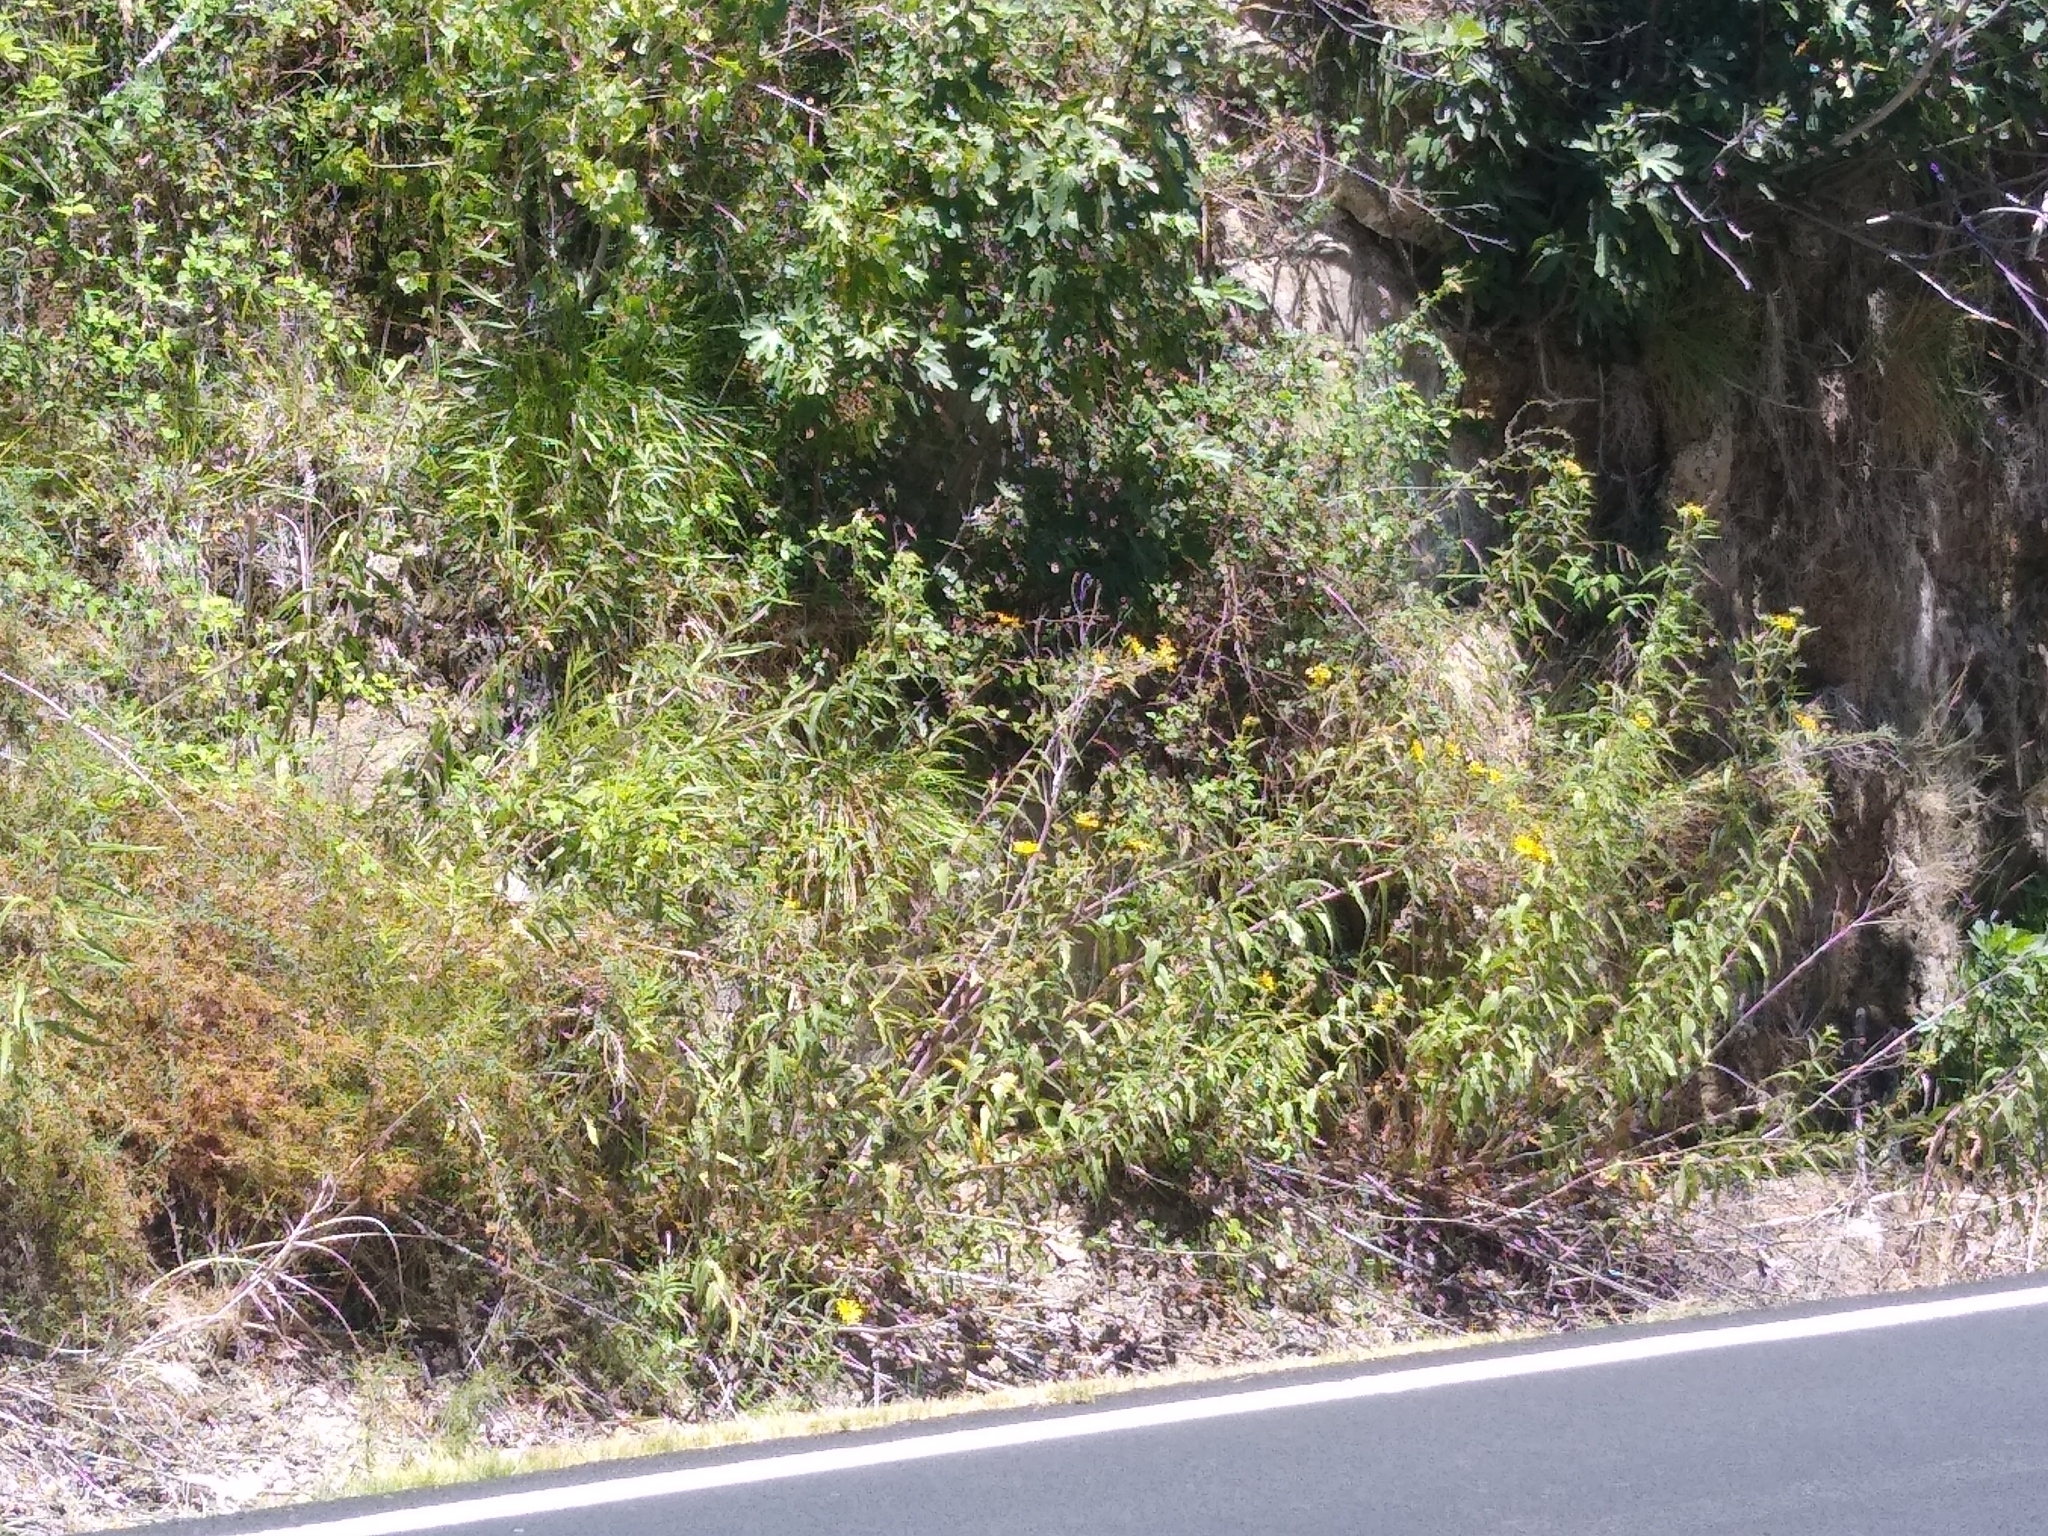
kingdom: Plantae
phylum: Tracheophyta
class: Magnoliopsida
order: Asterales
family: Asteraceae
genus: Helianthus
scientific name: Helianthus californicus
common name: California sunflower
